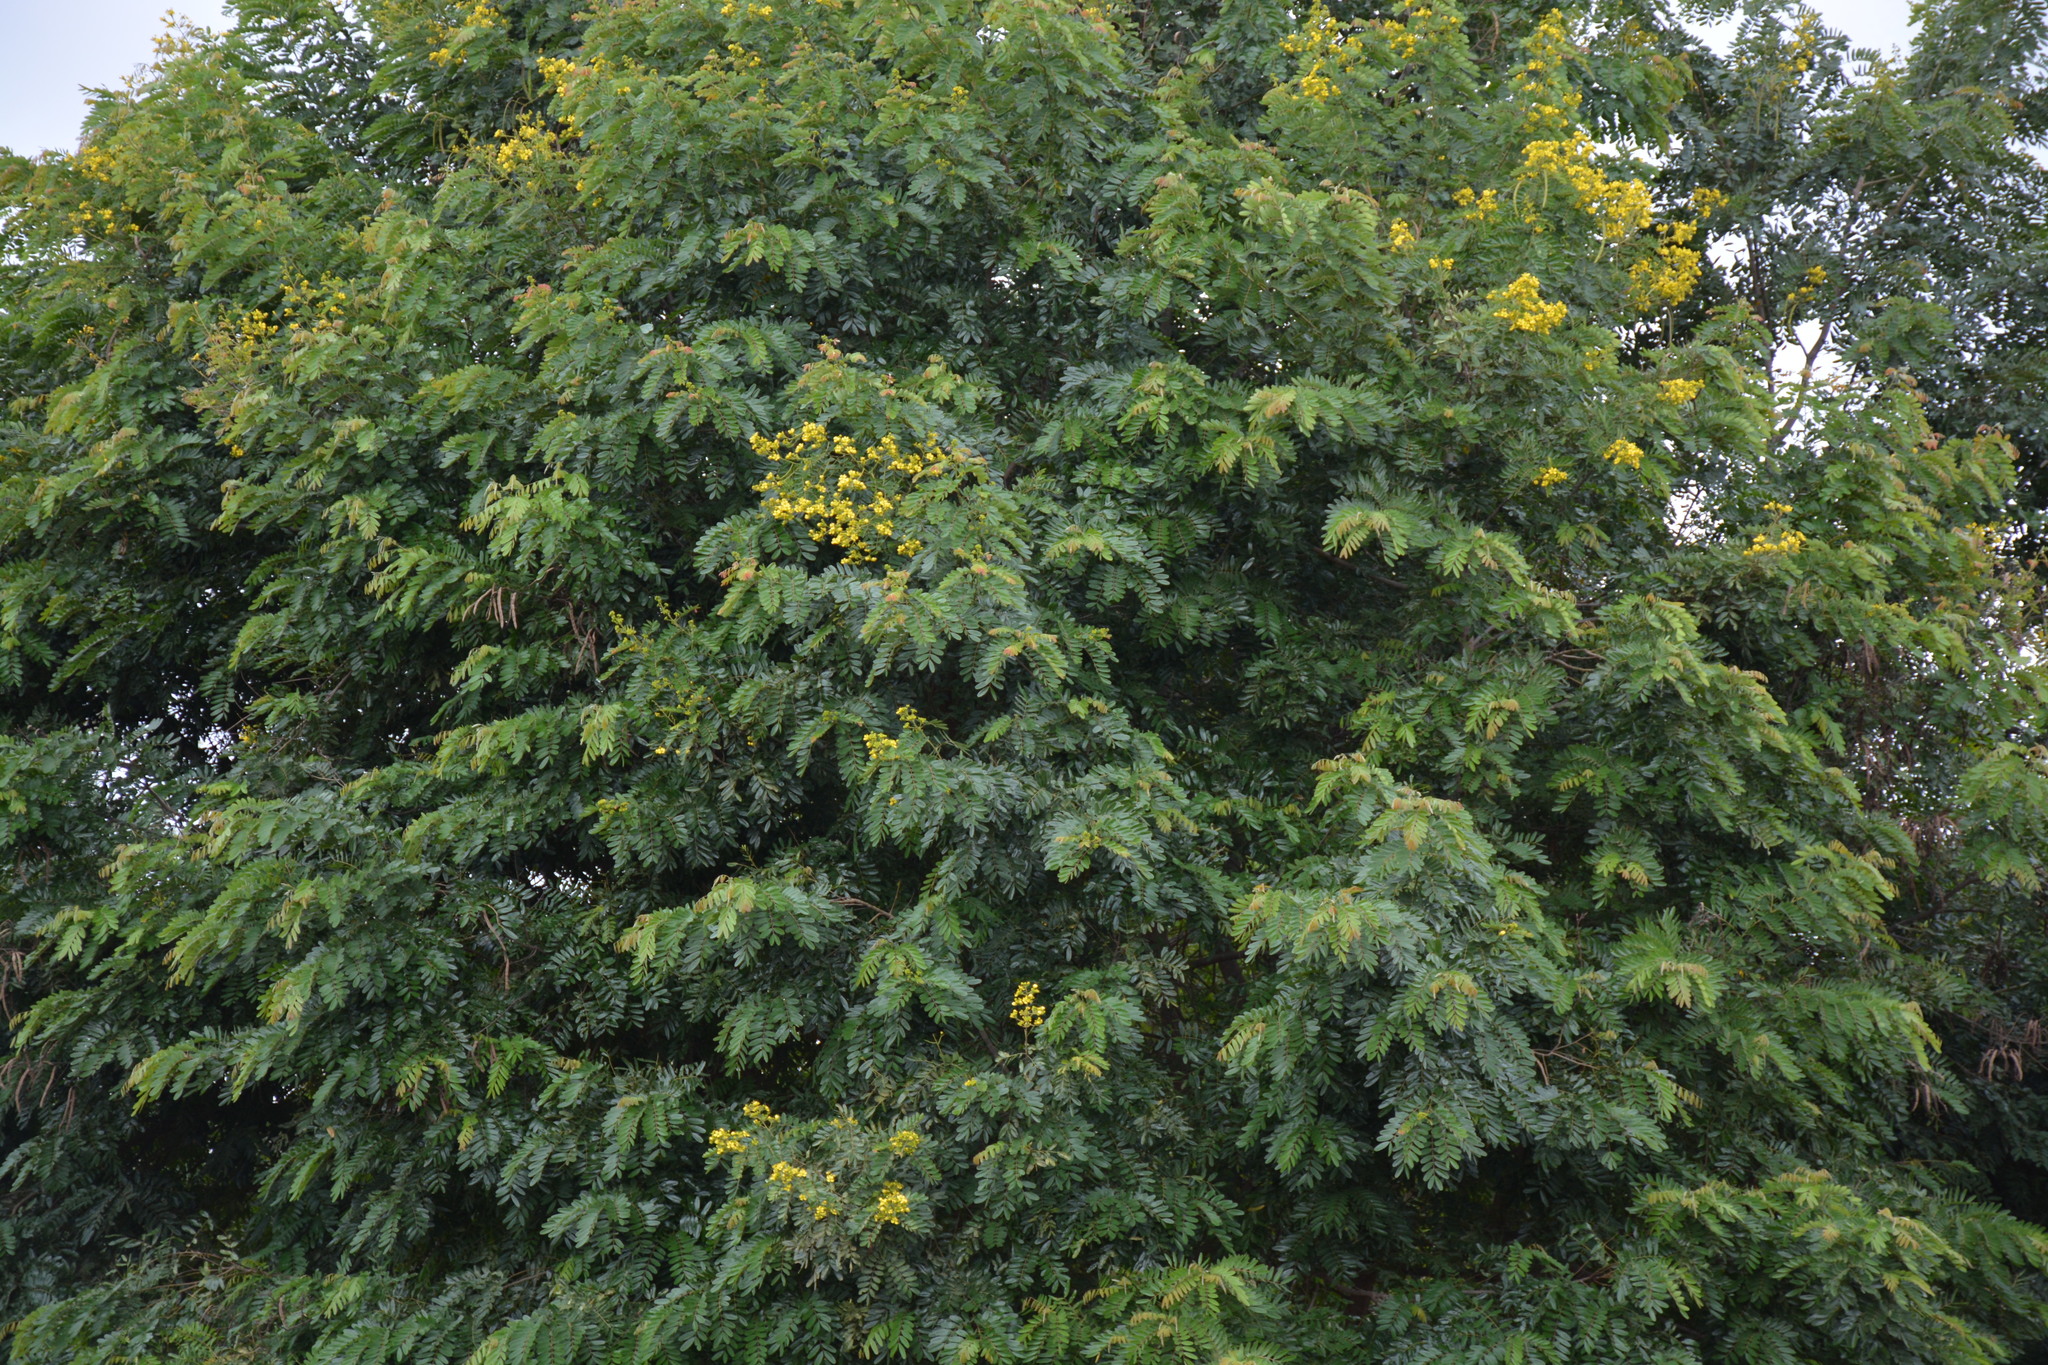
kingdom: Plantae
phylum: Tracheophyta
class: Magnoliopsida
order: Fabales
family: Fabaceae
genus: Senna
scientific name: Senna siamea
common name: Siamese cassia
